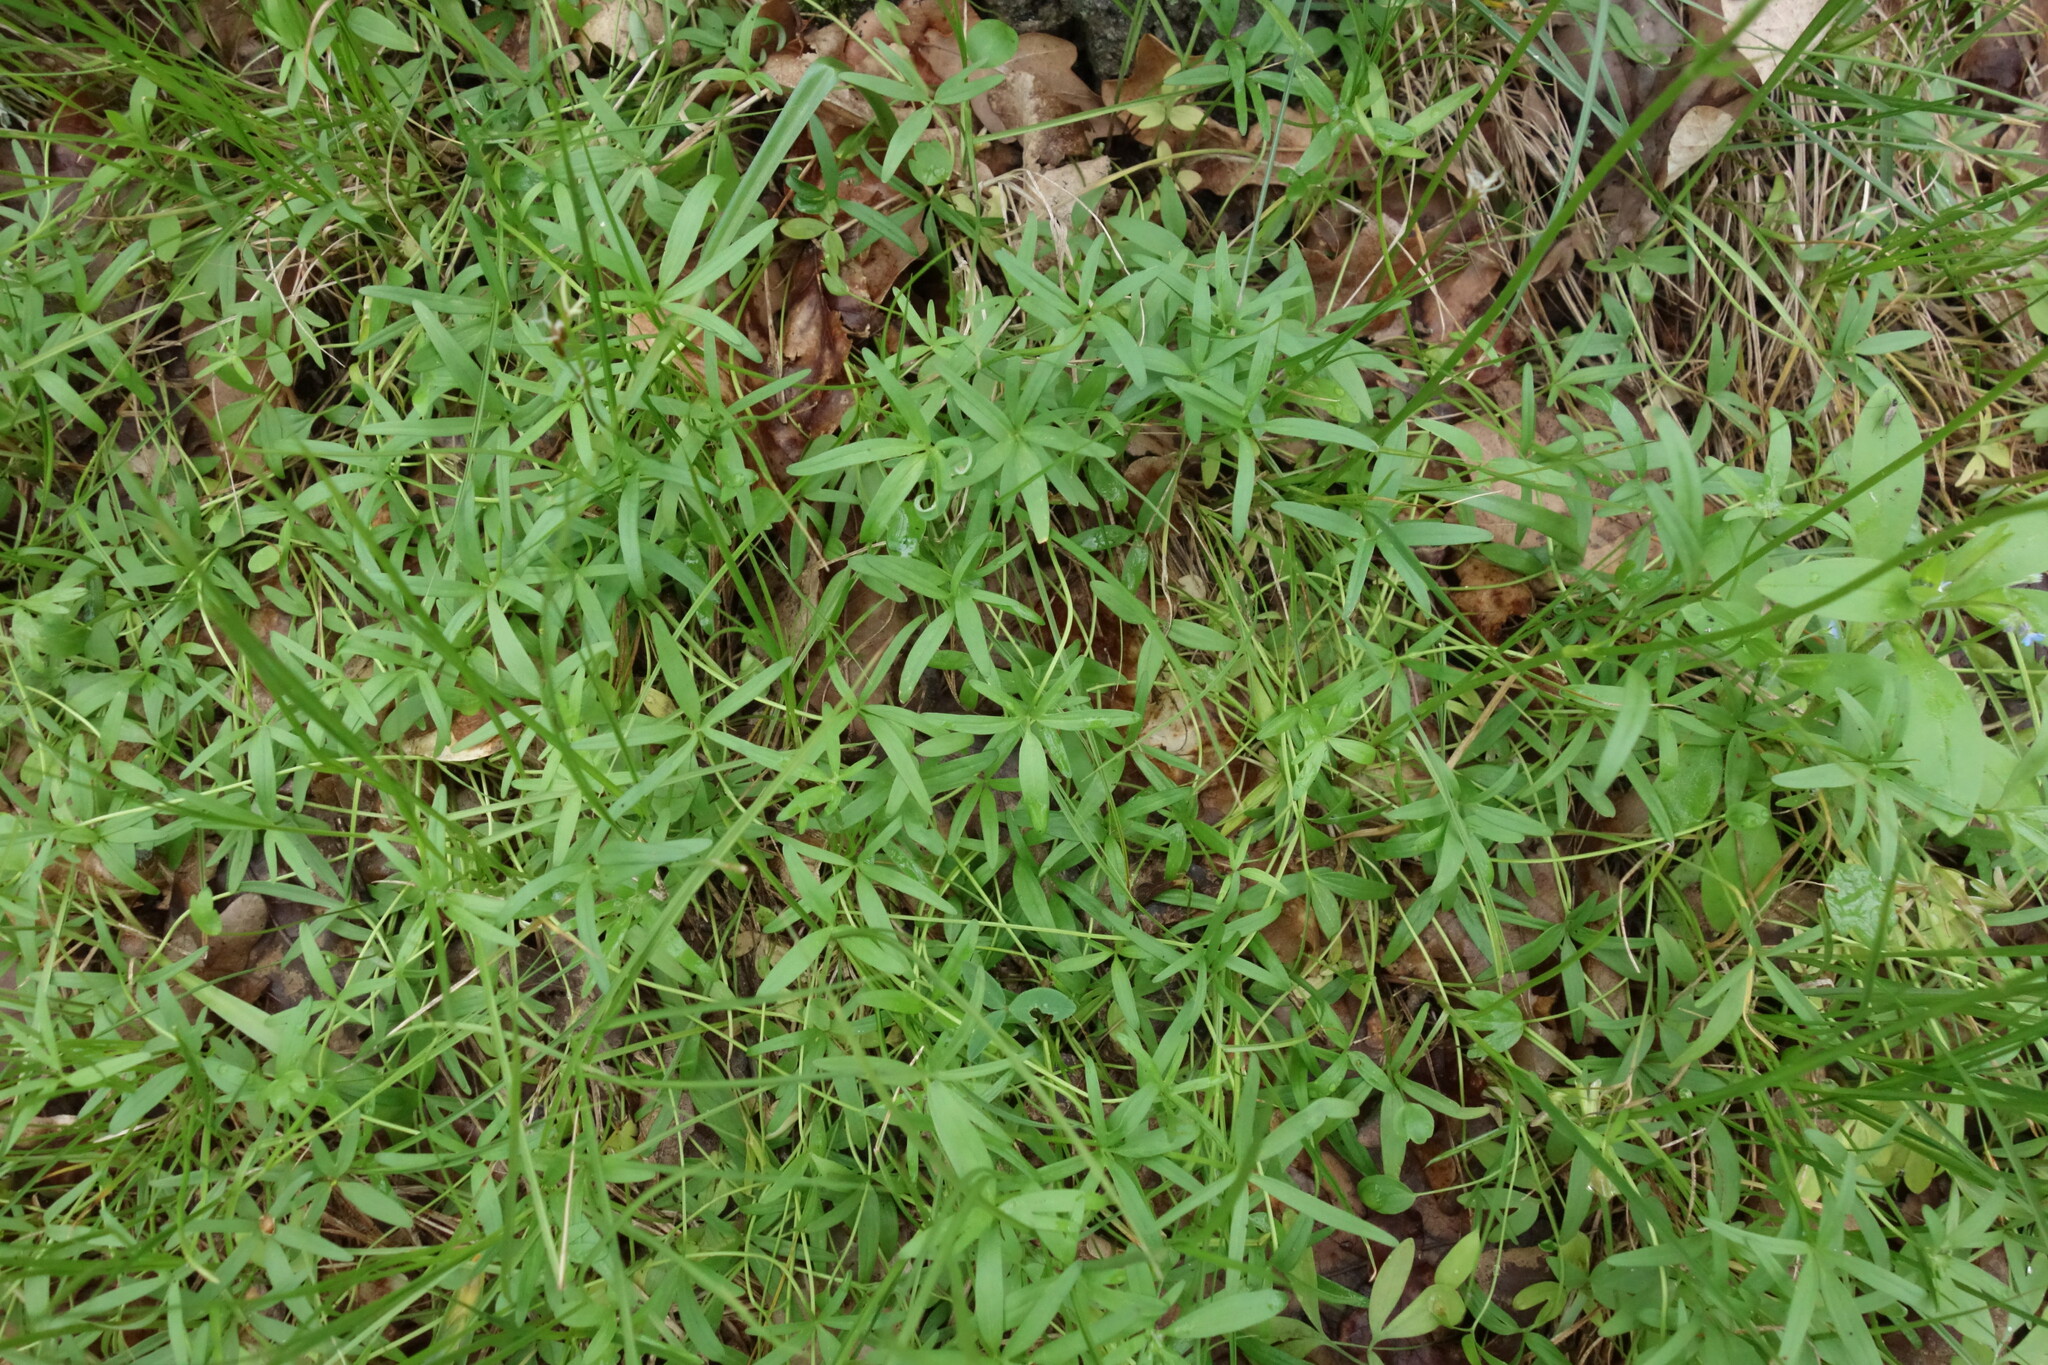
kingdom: Plantae
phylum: Tracheophyta
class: Magnoliopsida
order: Ranunculales
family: Ranunculaceae
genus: Ranunculus
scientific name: Ranunculus pedatus
